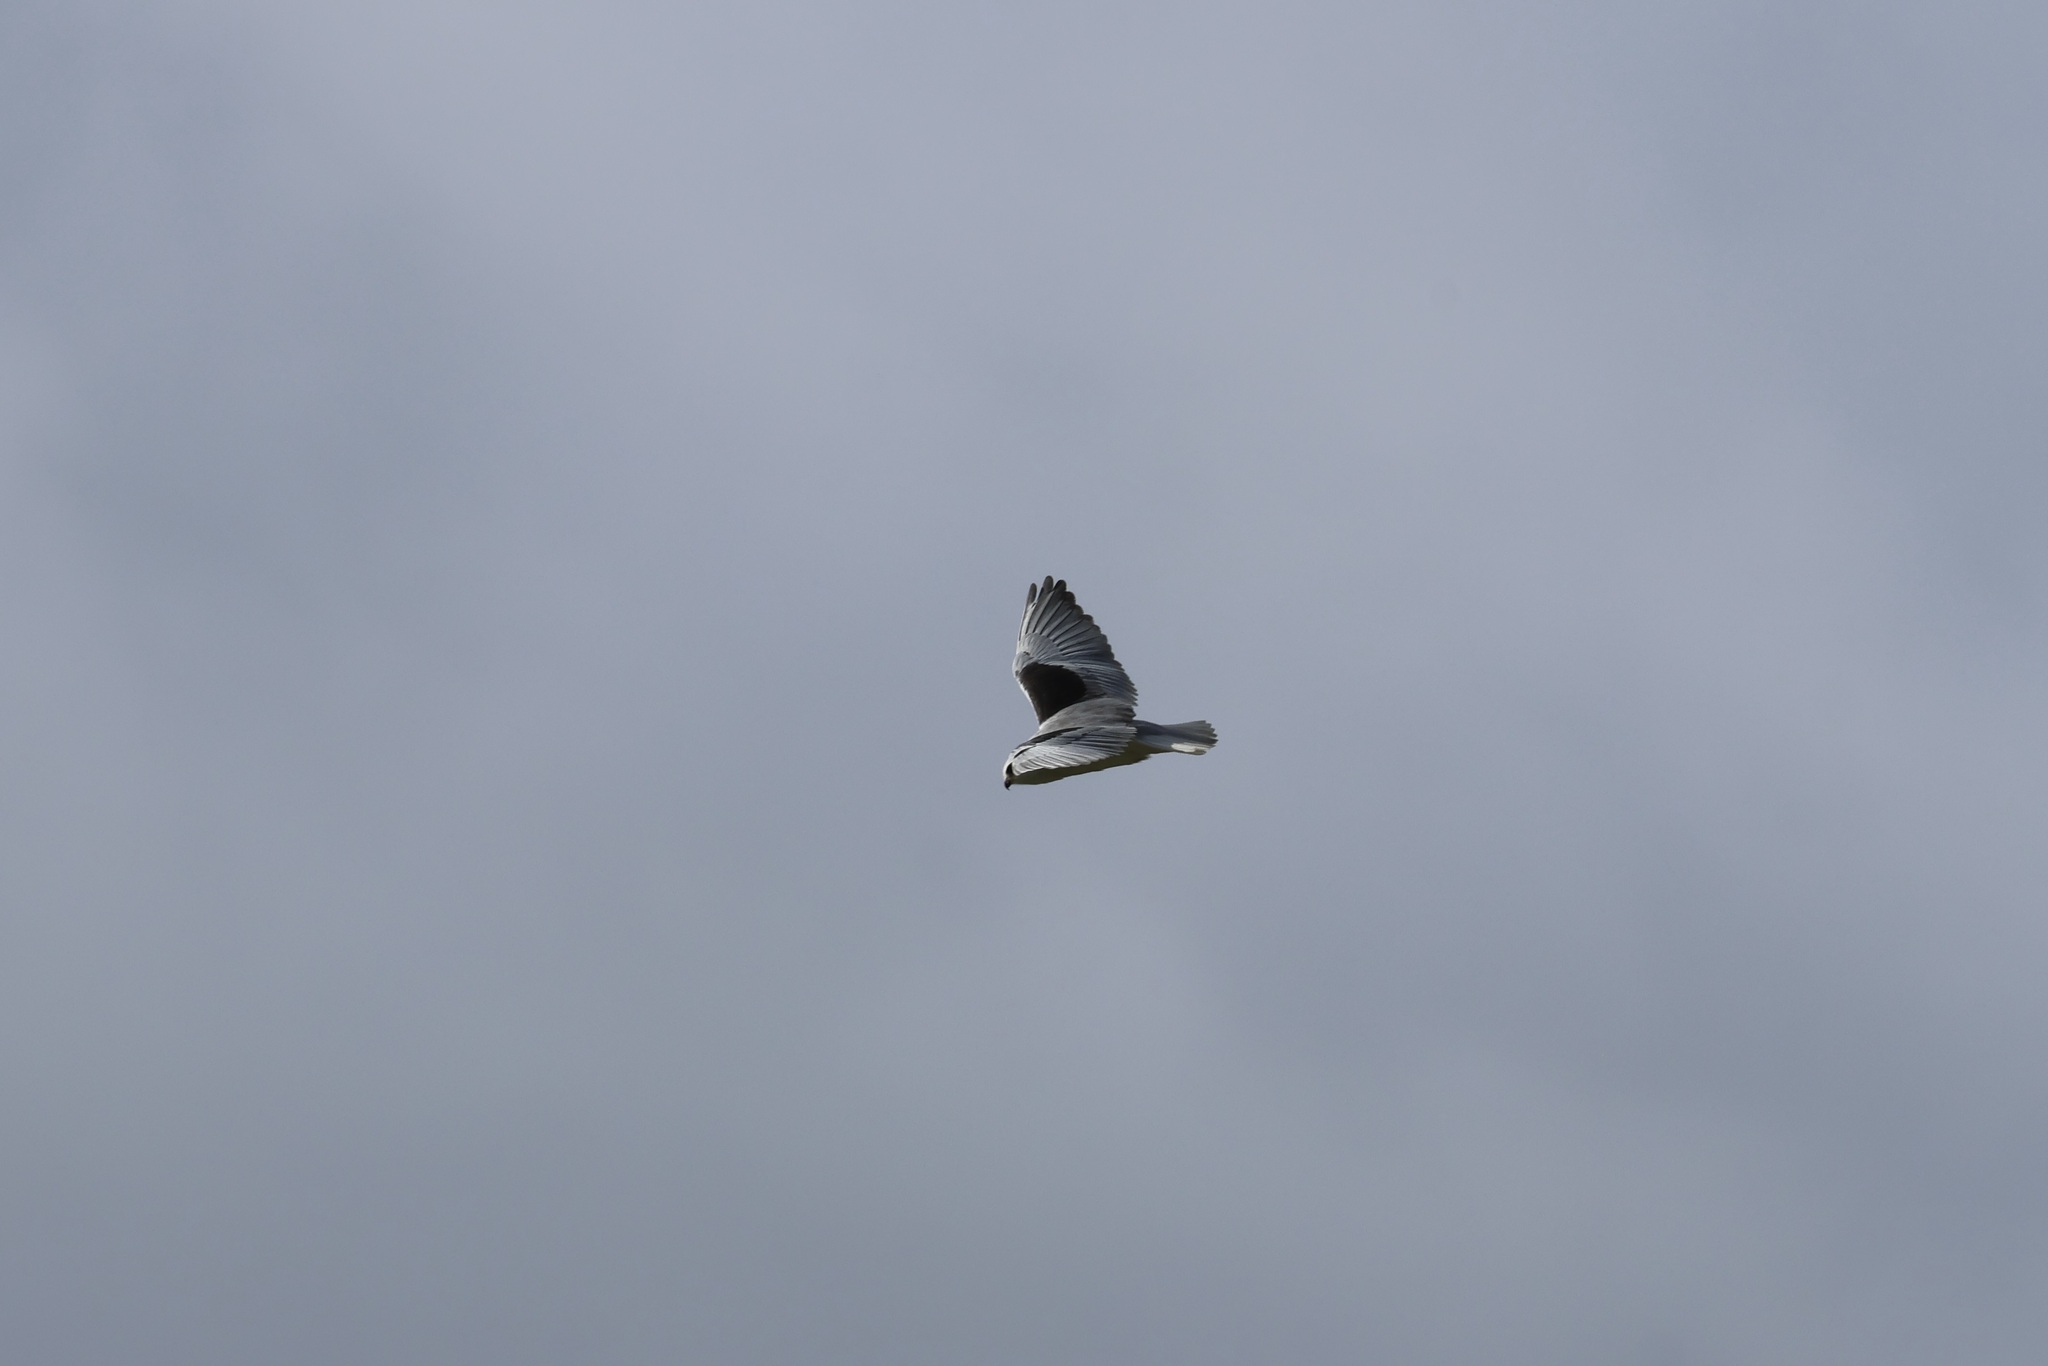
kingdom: Animalia
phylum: Chordata
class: Aves
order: Accipitriformes
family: Accipitridae
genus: Elanus
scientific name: Elanus caeruleus
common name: Black-winged kite
